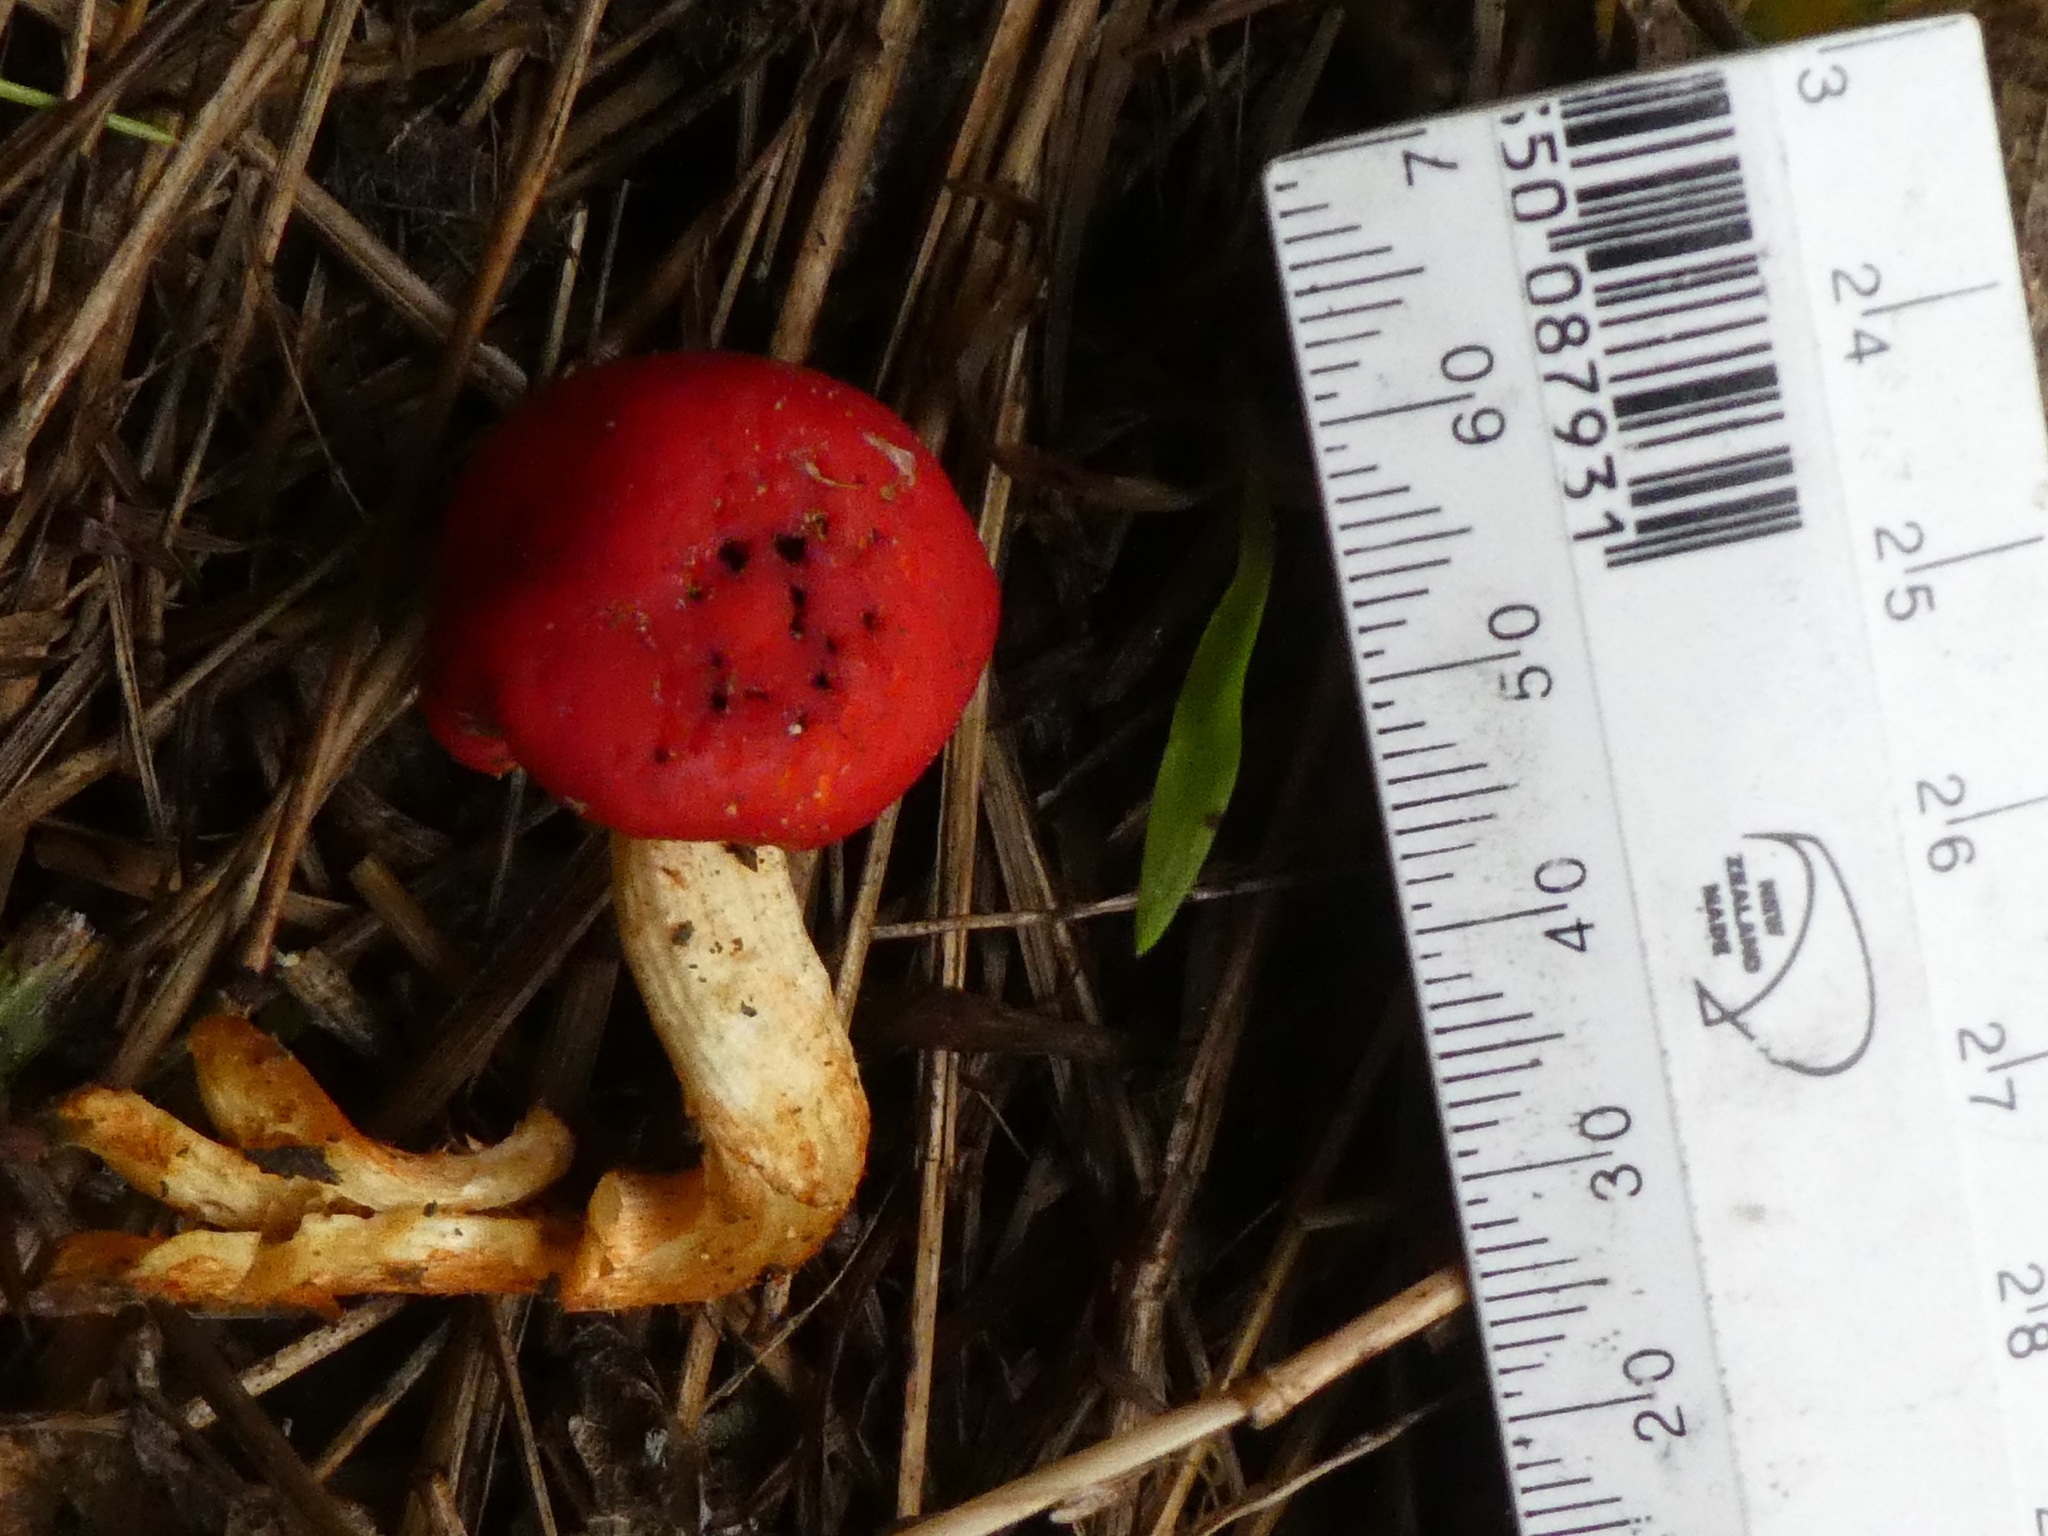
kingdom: Fungi
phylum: Basidiomycota
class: Agaricomycetes
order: Agaricales
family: Strophariaceae
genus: Leratiomyces
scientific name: Leratiomyces erythrocephalus
